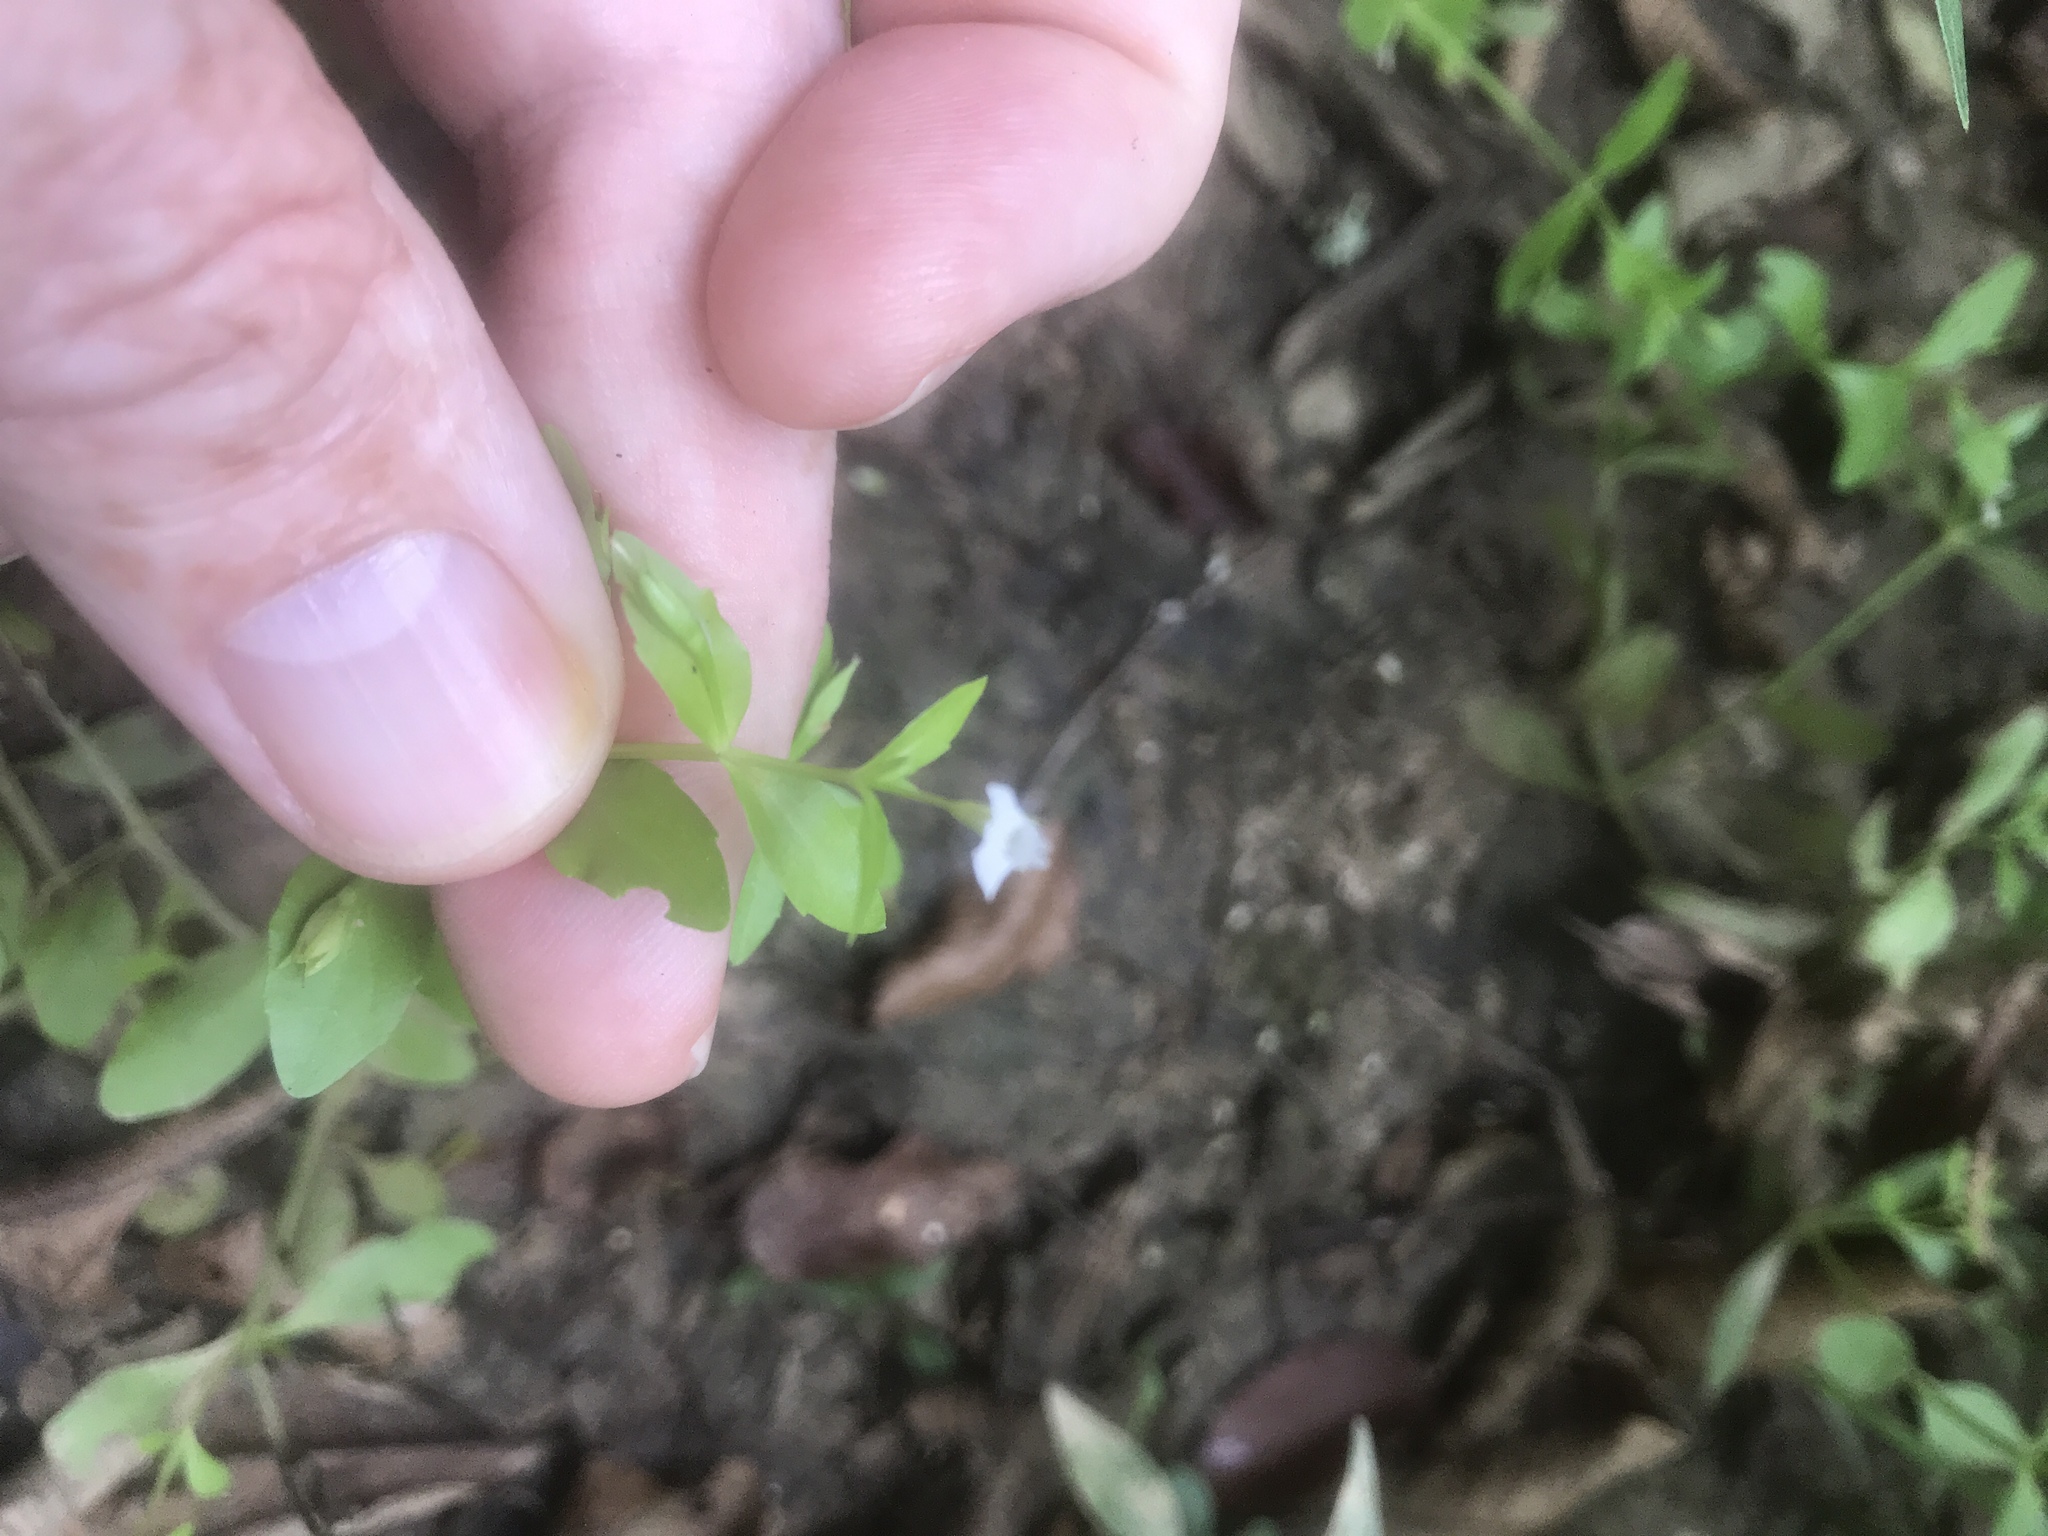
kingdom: Plantae
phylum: Tracheophyta
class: Magnoliopsida
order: Lamiales
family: Linderniaceae
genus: Lindernia
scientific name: Lindernia dubia
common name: Annual false pimpernel
